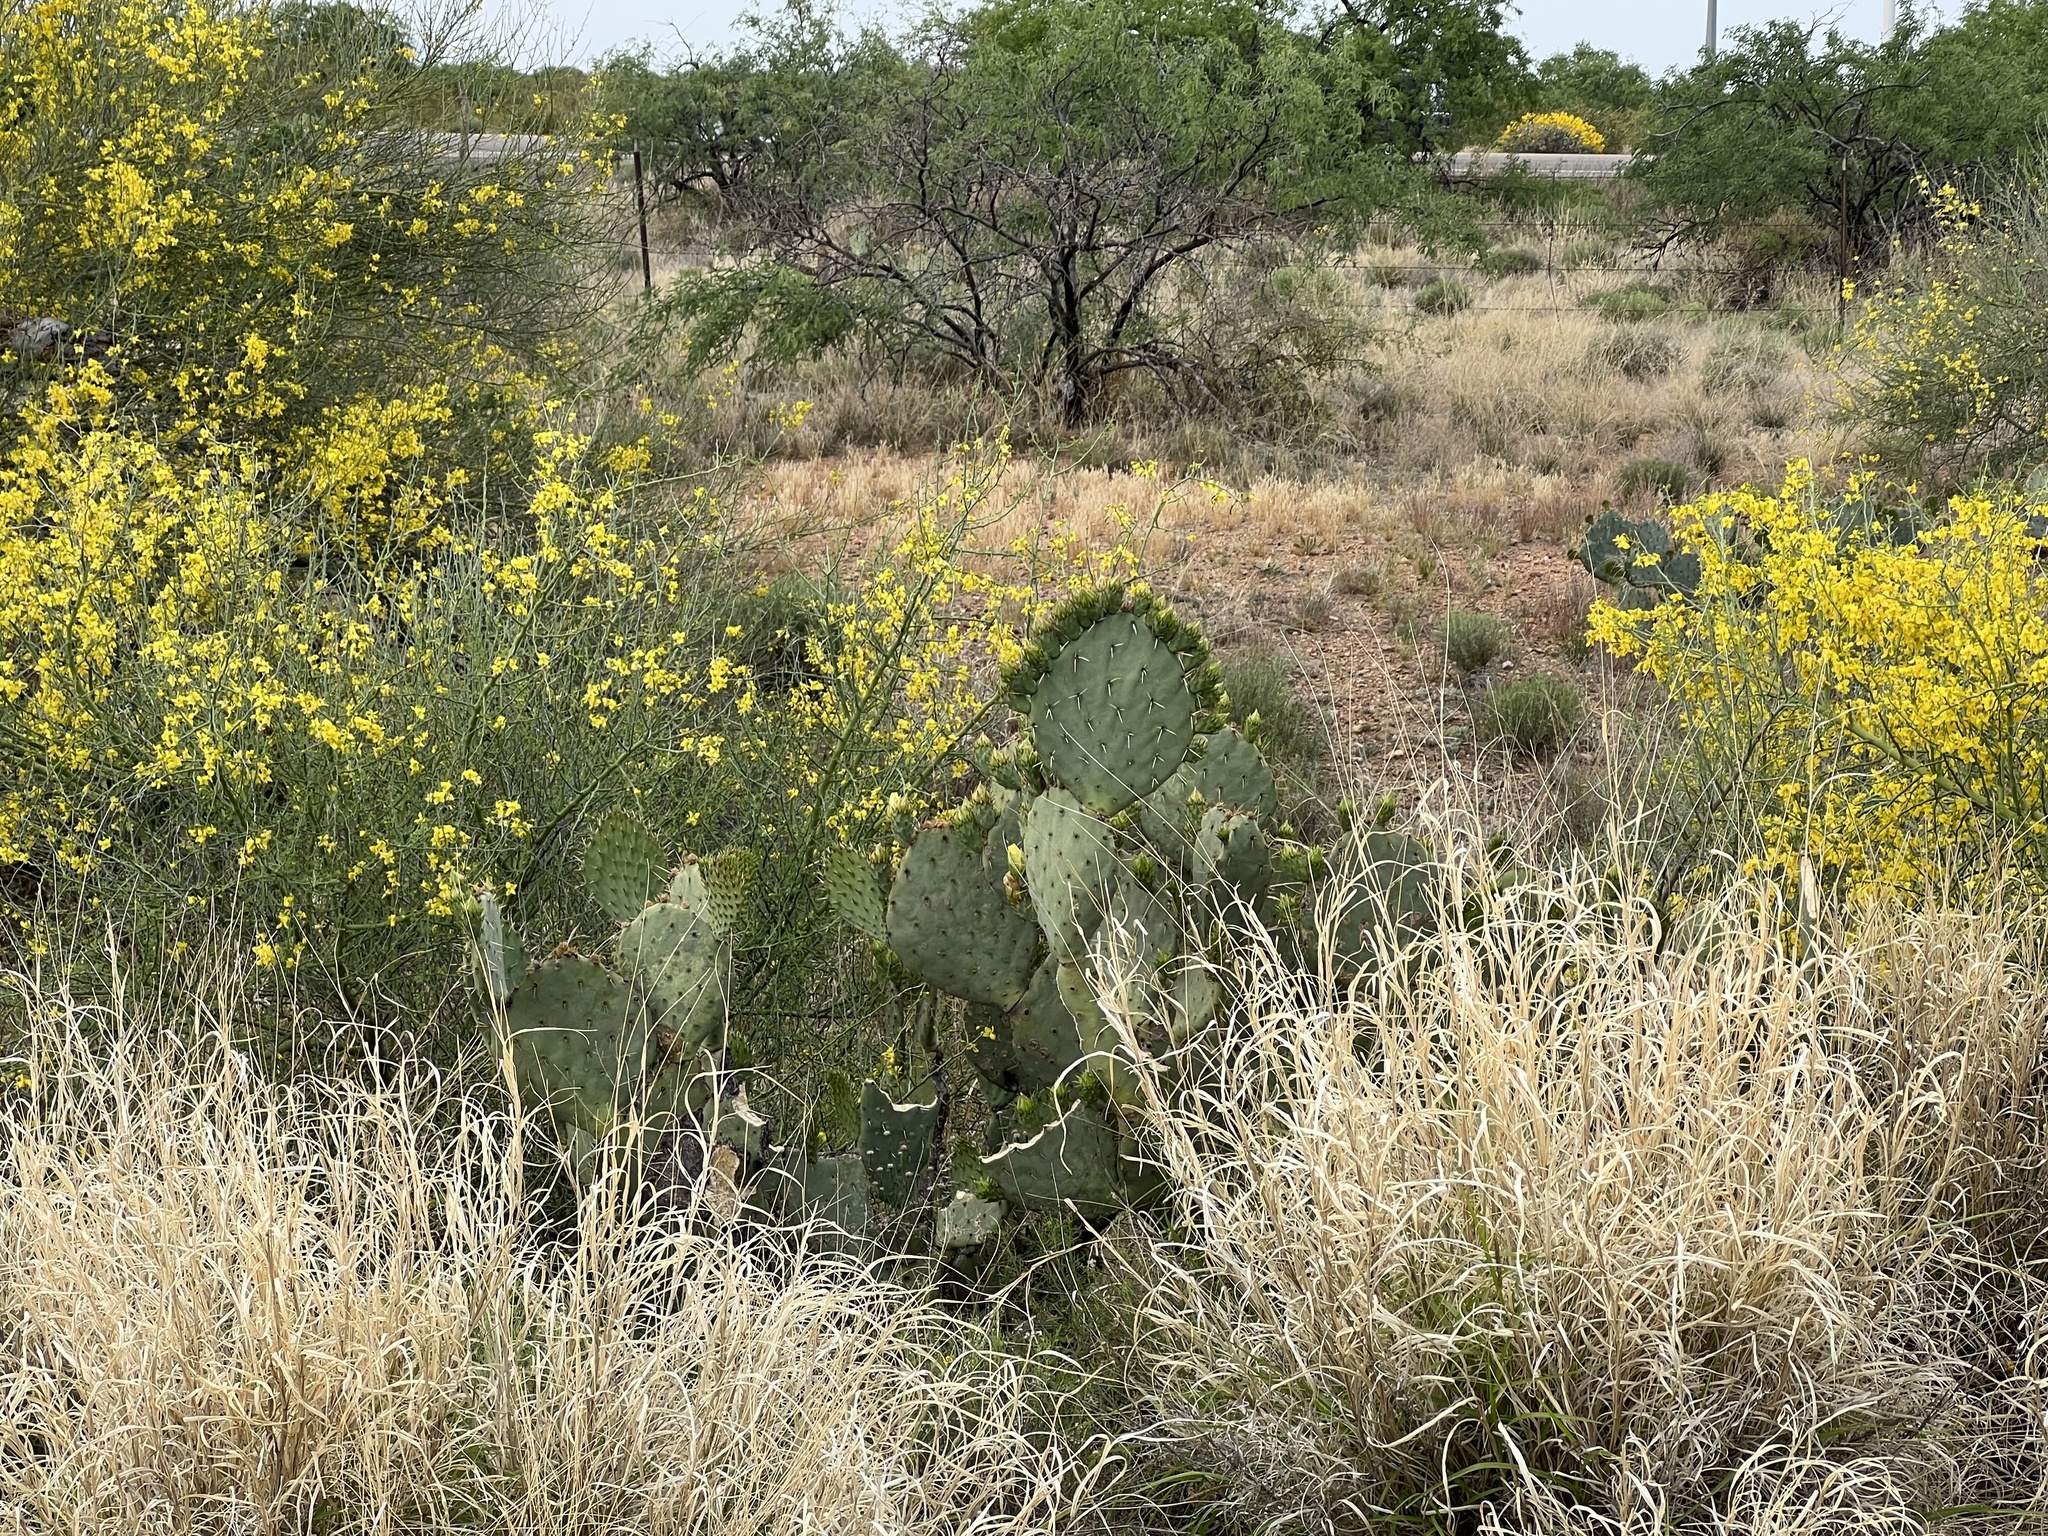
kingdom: Plantae
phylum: Tracheophyta
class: Magnoliopsida
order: Caryophyllales
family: Cactaceae
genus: Opuntia
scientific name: Opuntia engelmannii
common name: Cactus-apple
